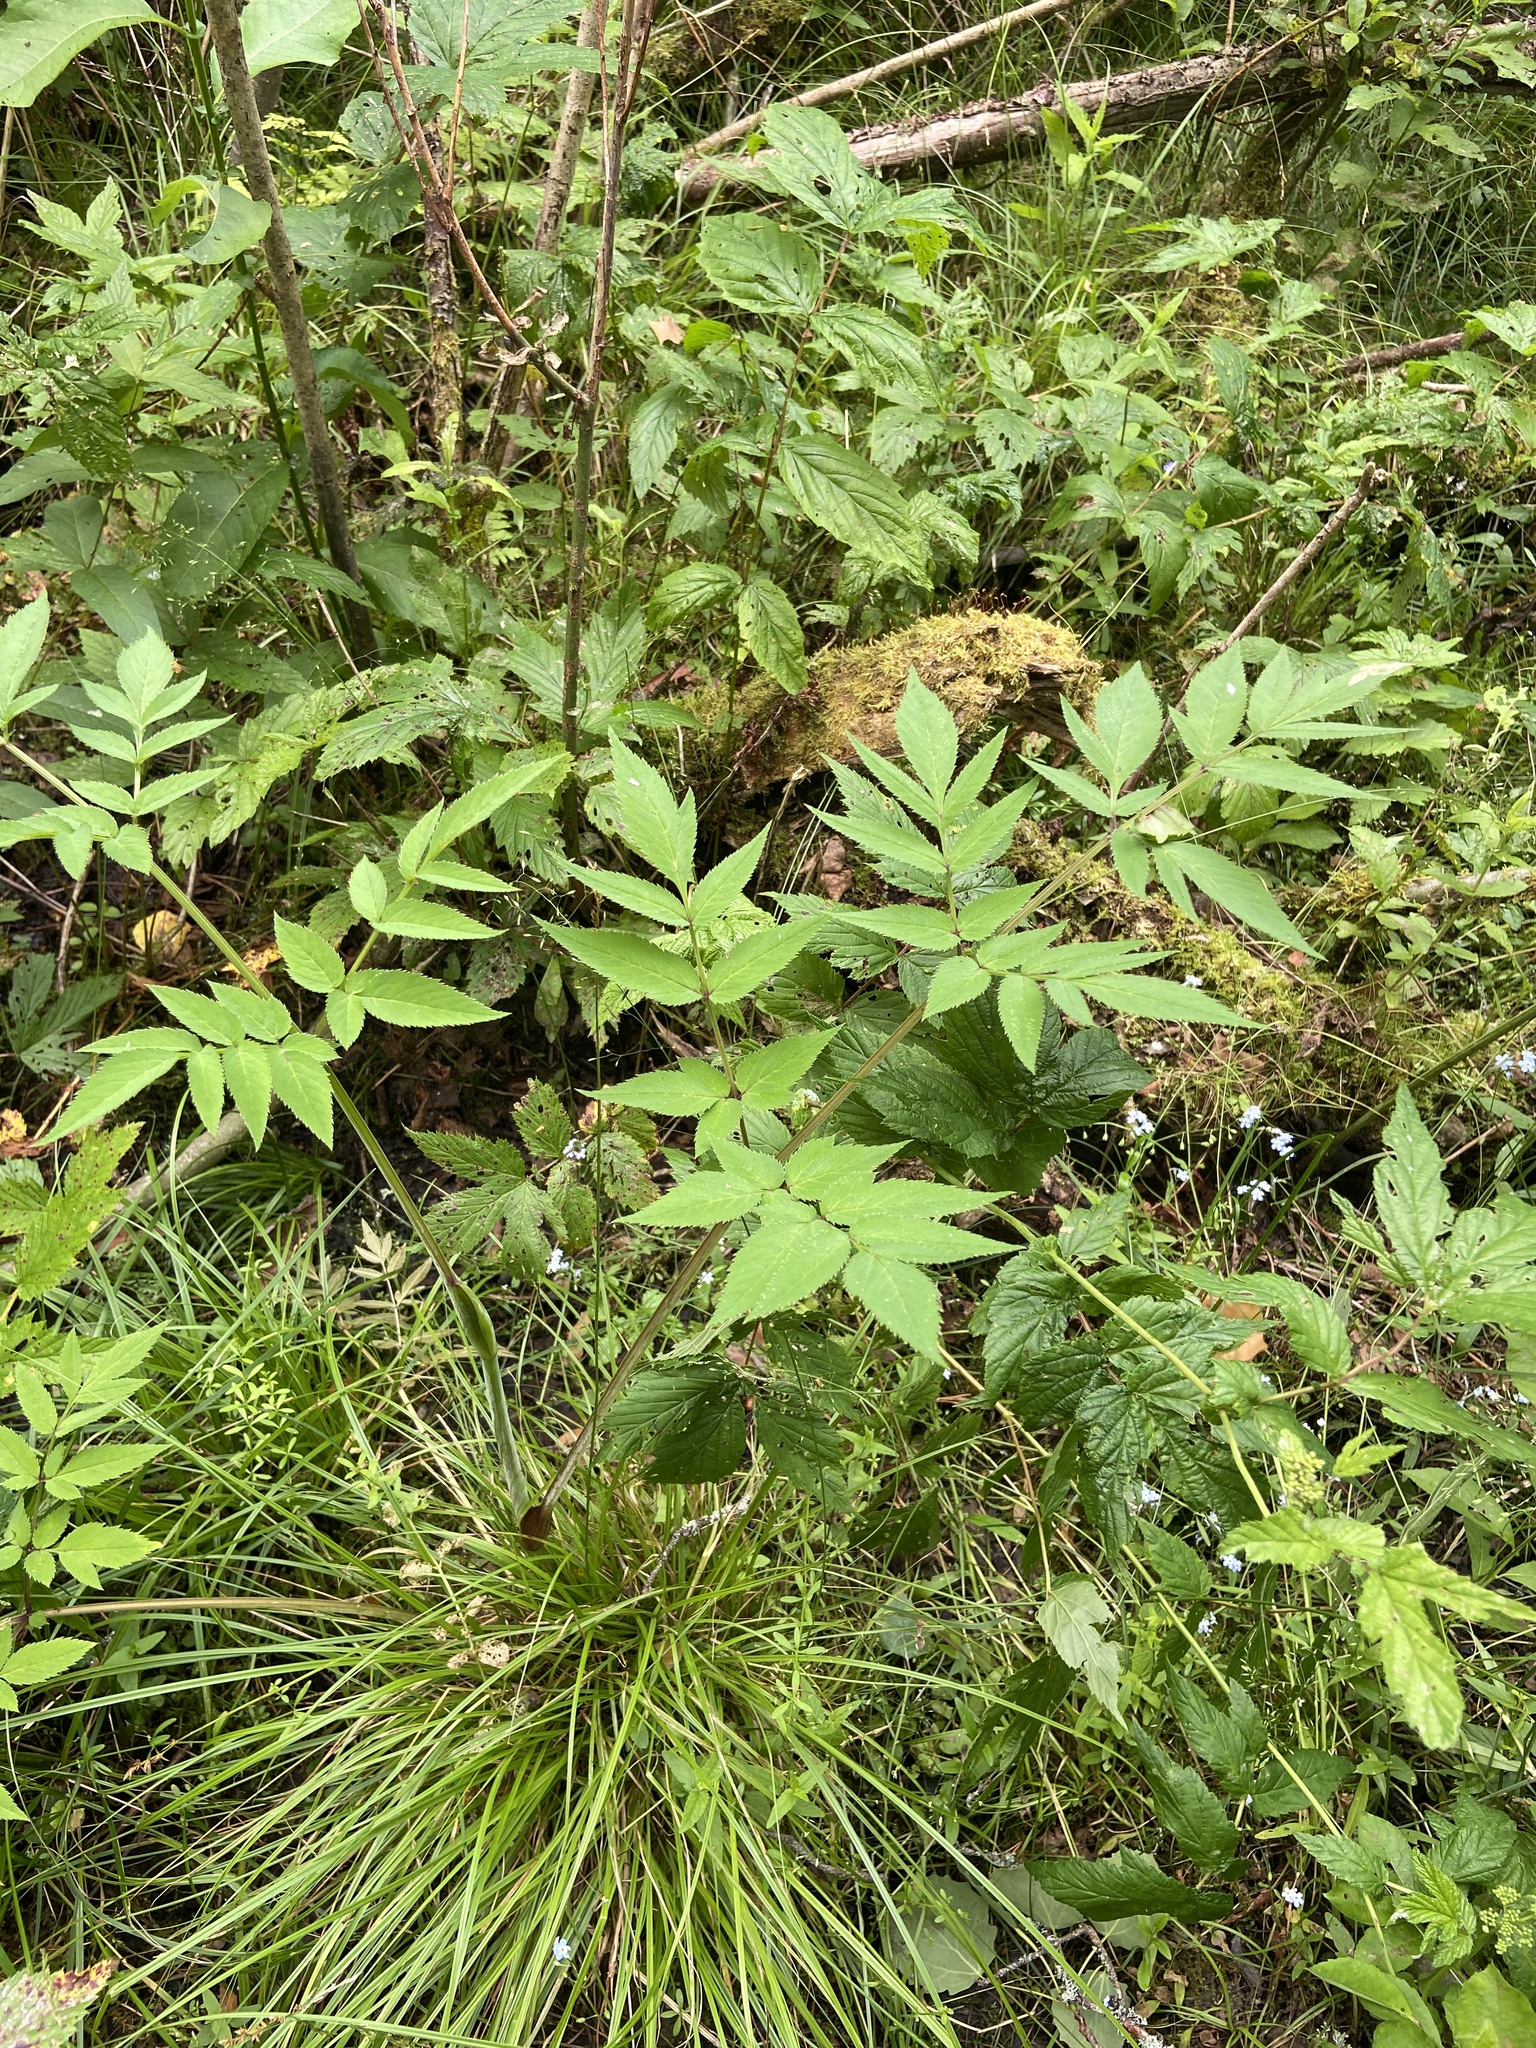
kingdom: Plantae
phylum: Tracheophyta
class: Magnoliopsida
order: Apiales
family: Apiaceae
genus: Angelica
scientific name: Angelica sylvestris
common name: Wild angelica
